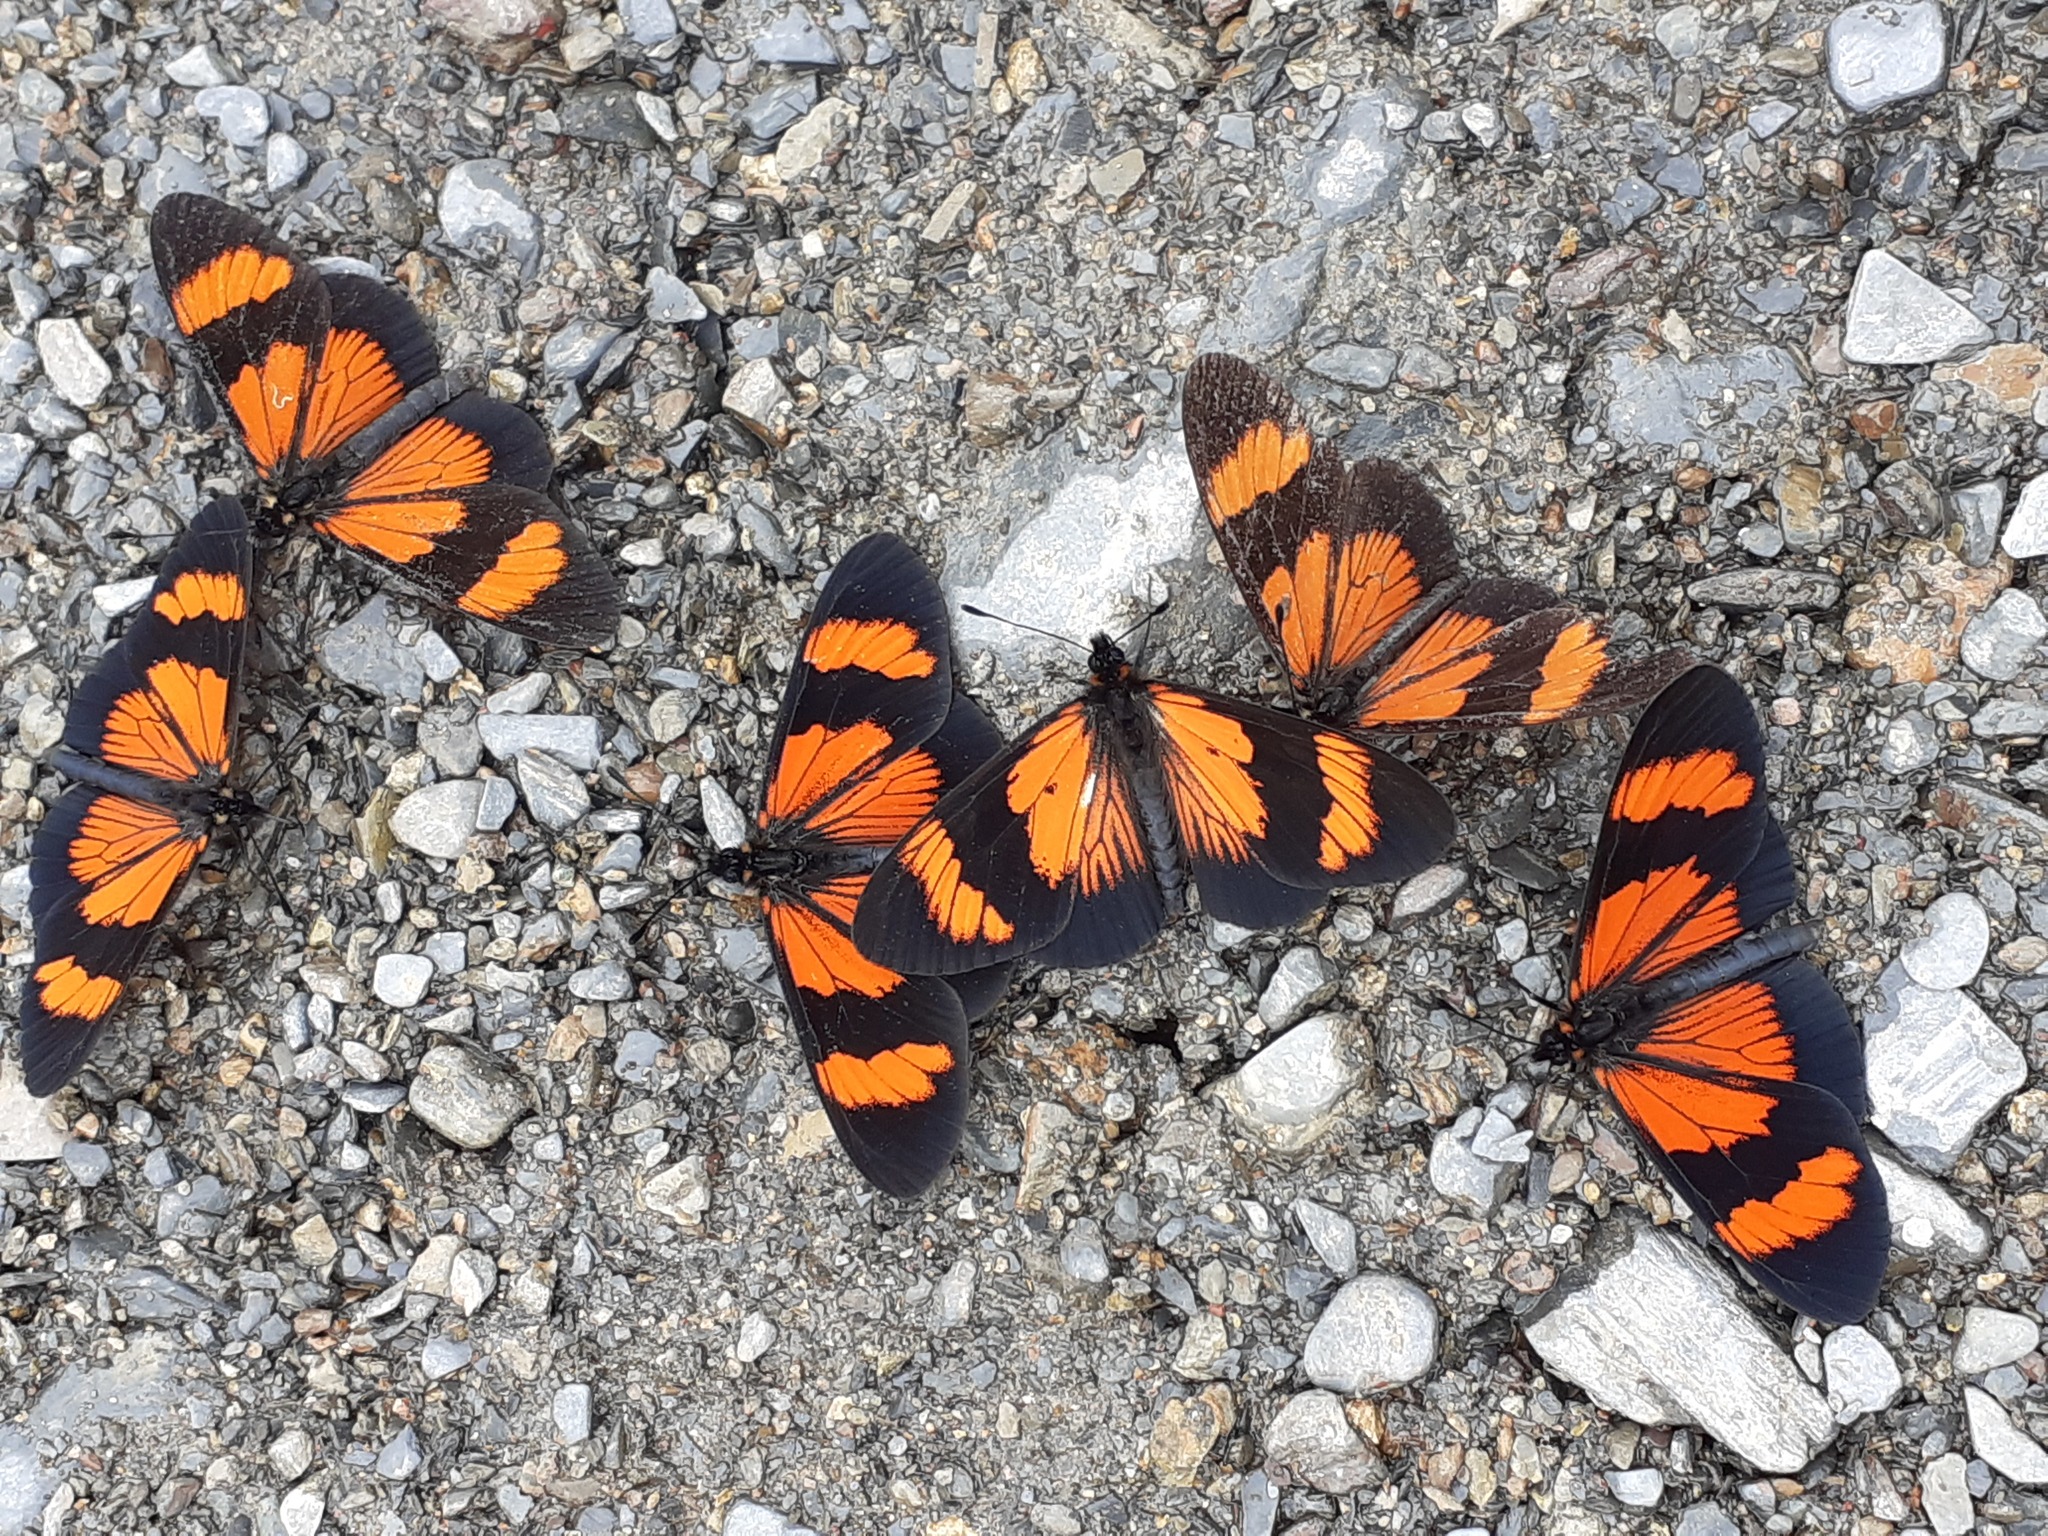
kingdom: Animalia
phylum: Arthropoda
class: Insecta
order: Lepidoptera
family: Nymphalidae
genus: Actinote
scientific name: Actinote negra
